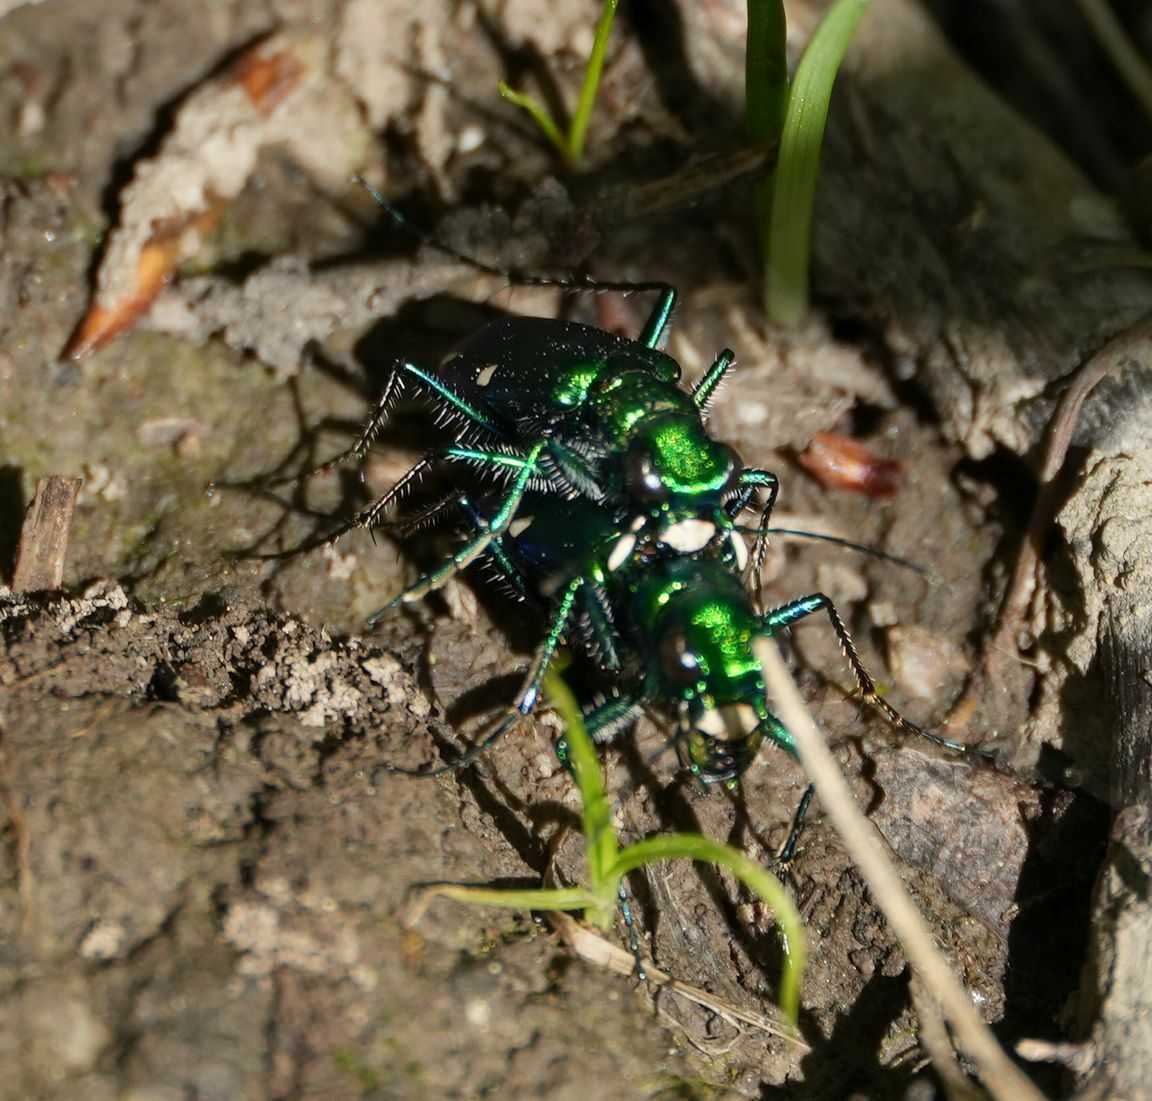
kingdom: Animalia
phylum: Arthropoda
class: Insecta
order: Coleoptera
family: Carabidae
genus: Cicindela
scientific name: Cicindela sexguttata
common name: Six-spotted tiger beetle
